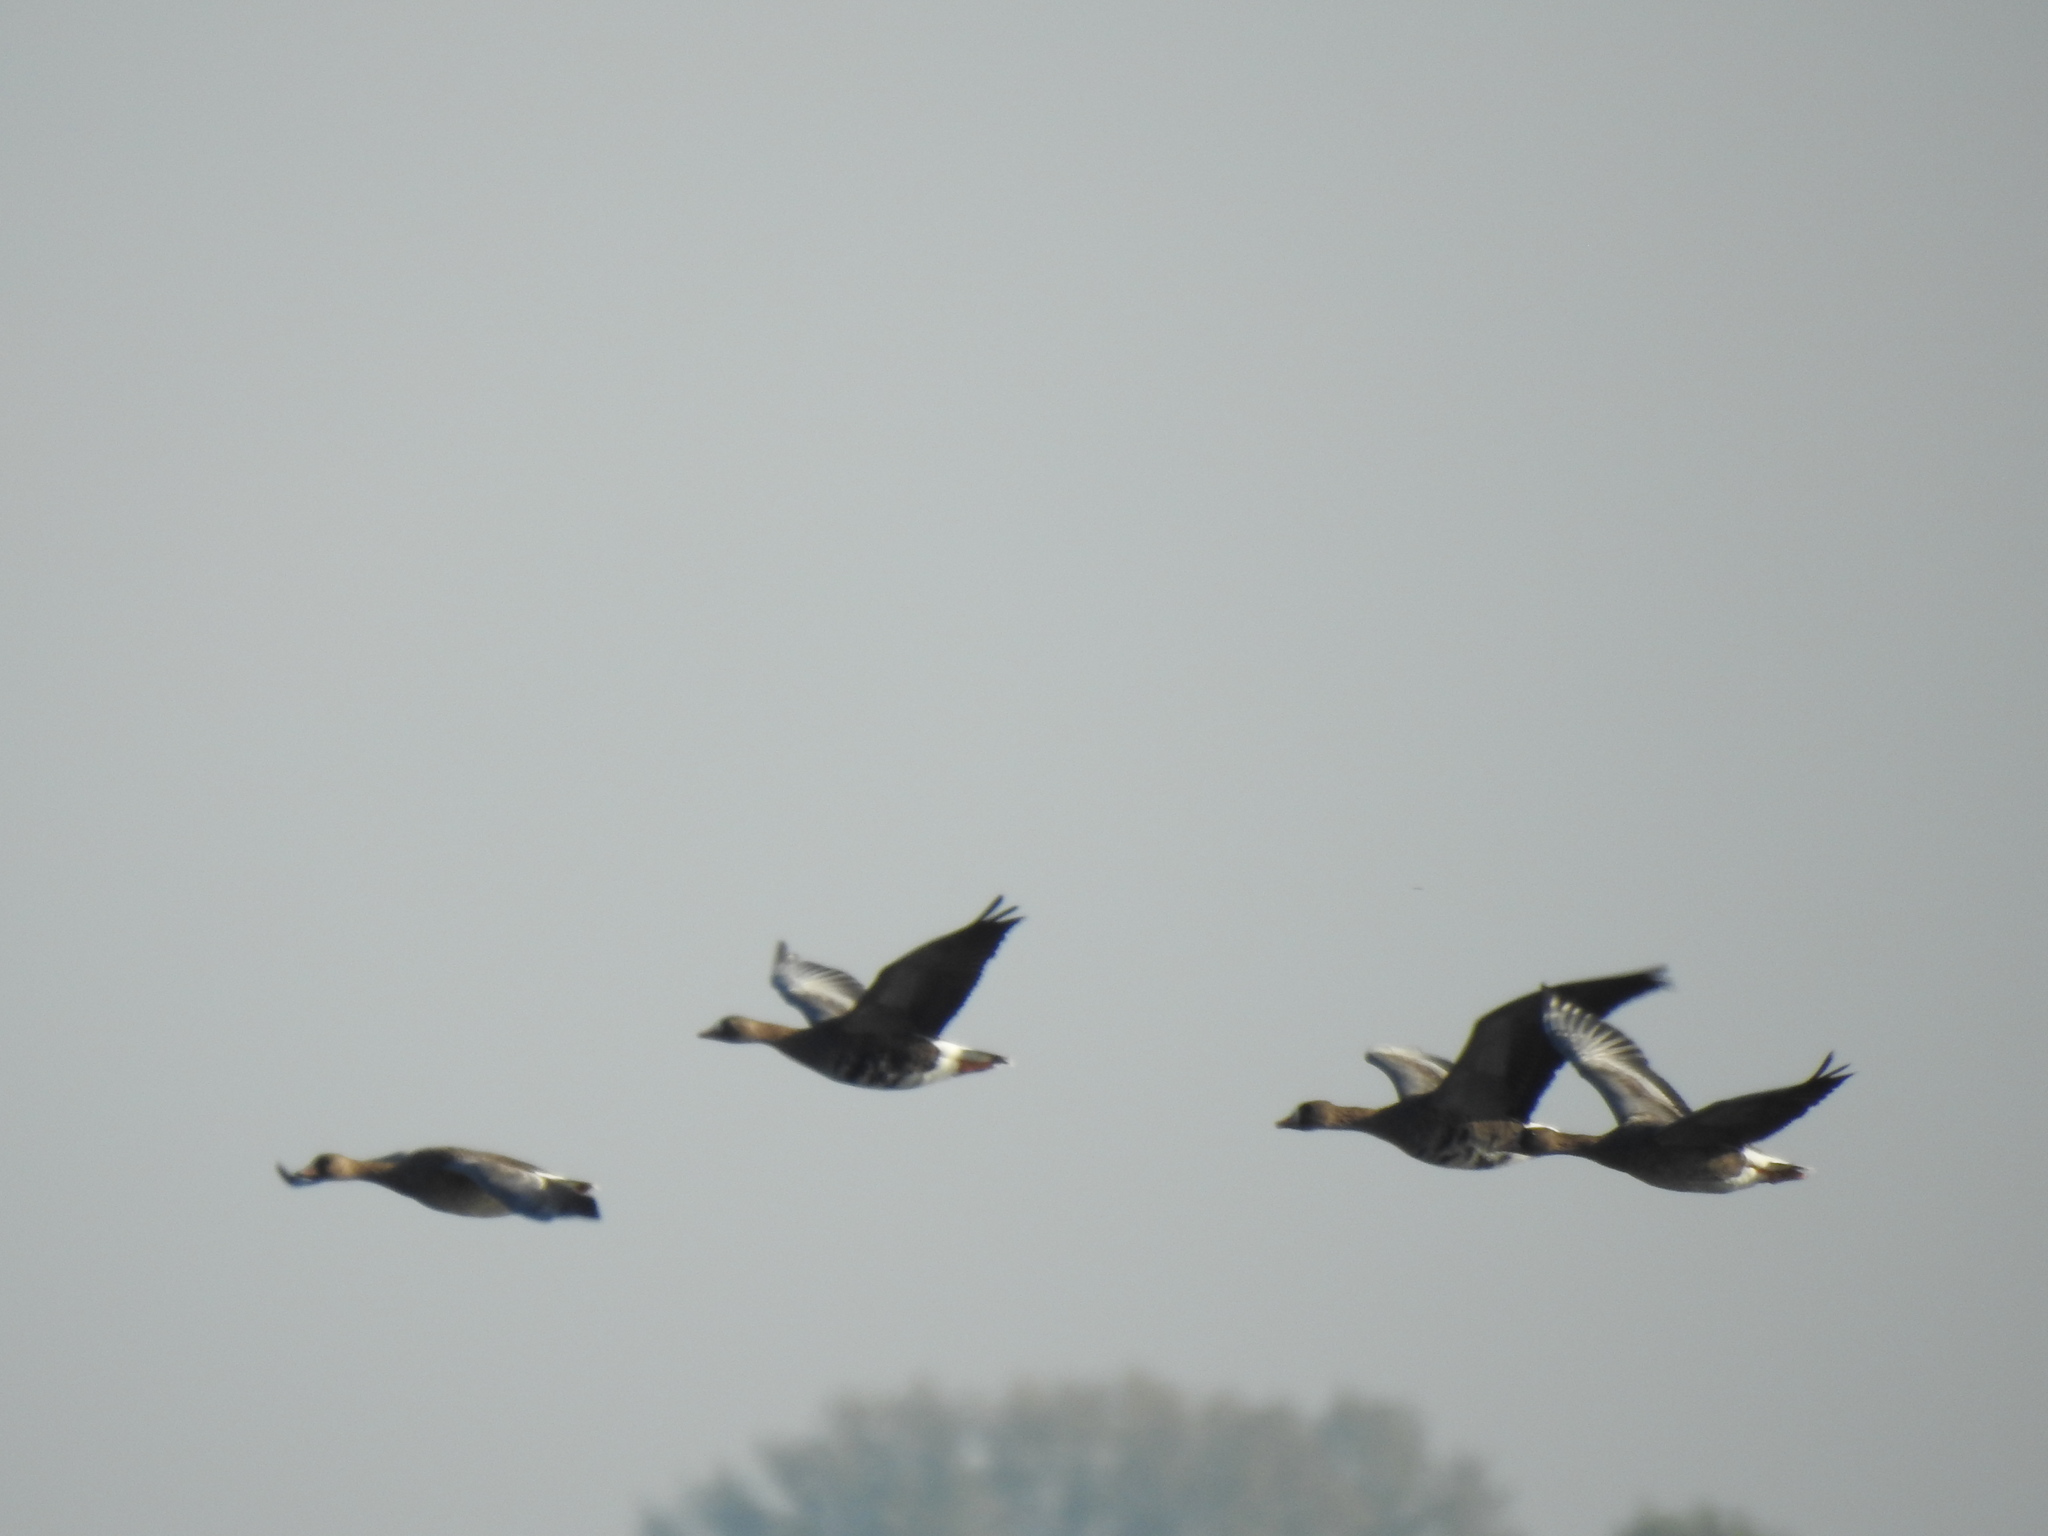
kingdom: Animalia
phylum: Chordata
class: Aves
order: Anseriformes
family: Anatidae
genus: Anser
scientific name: Anser albifrons
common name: Greater white-fronted goose
